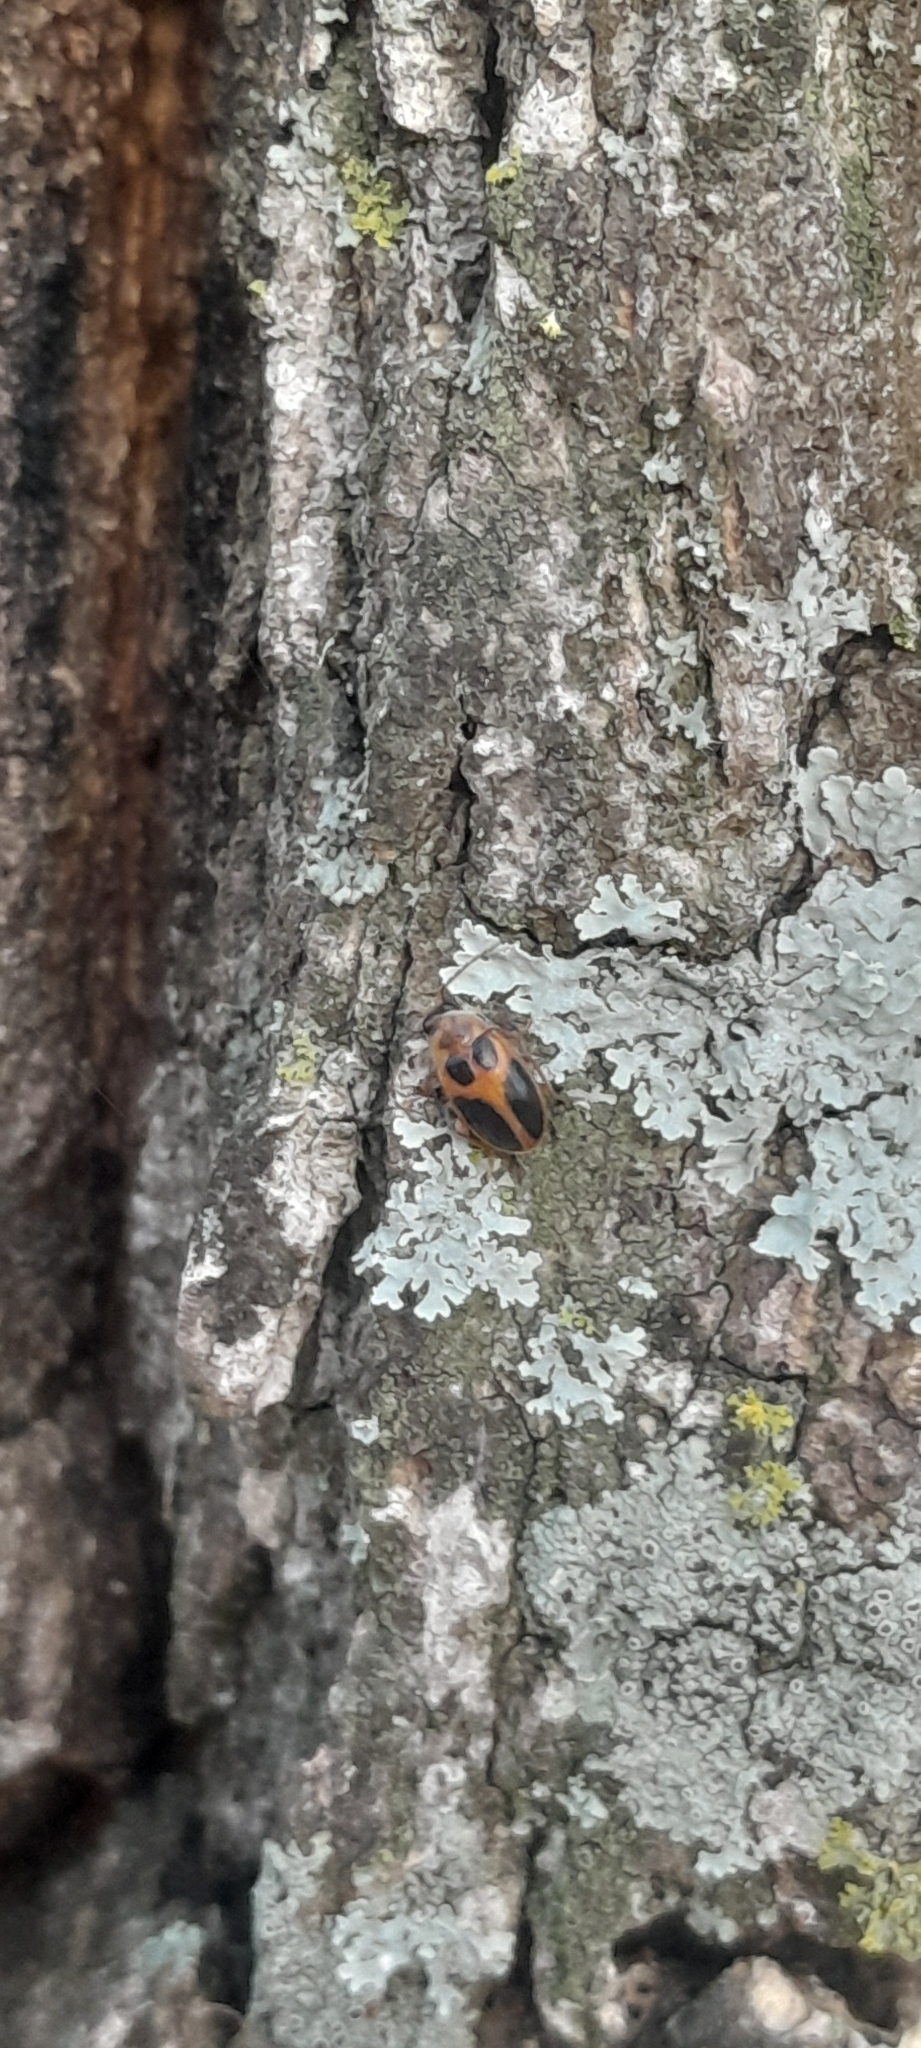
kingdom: Animalia
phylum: Arthropoda
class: Insecta
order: Coleoptera
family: Scirtidae
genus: Sacodes
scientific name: Sacodes pulchella
